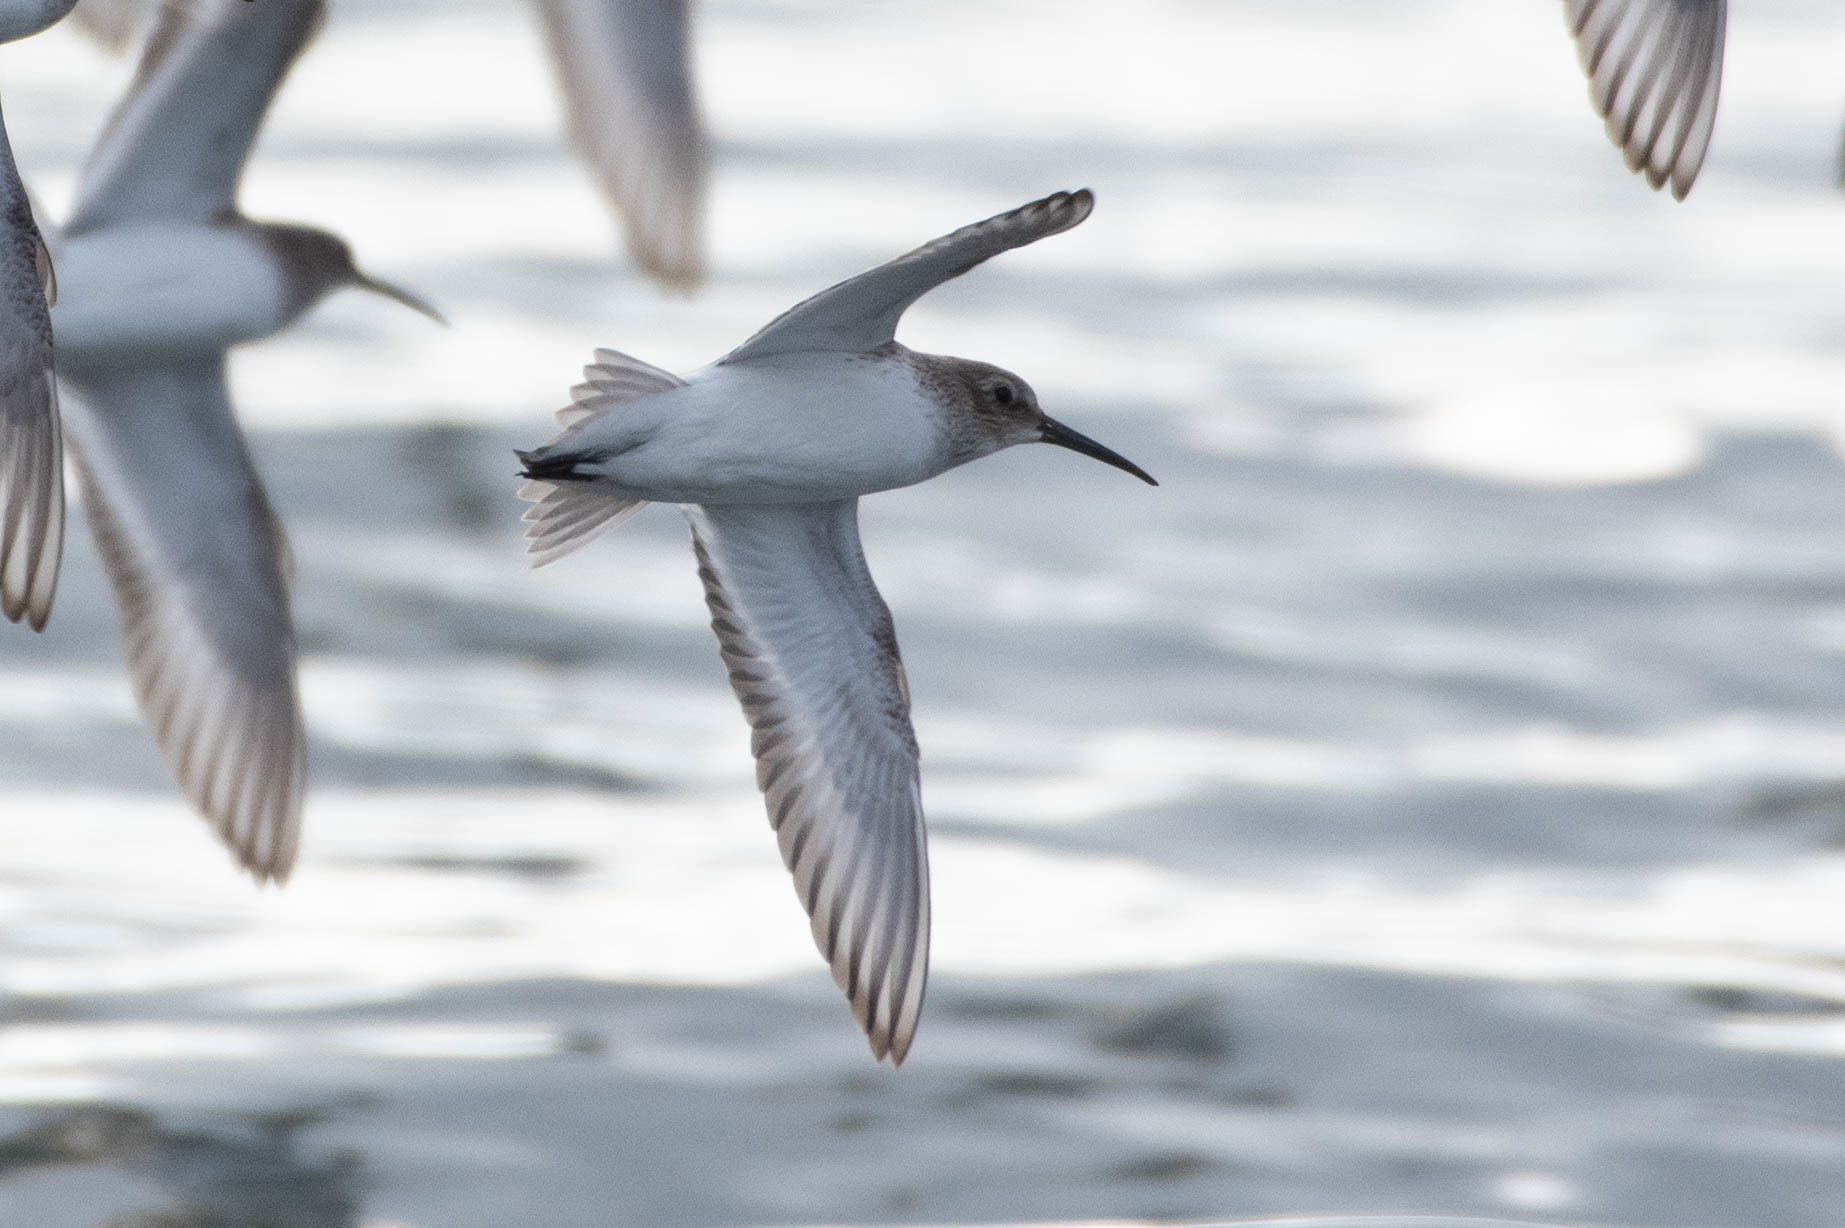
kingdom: Animalia
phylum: Chordata
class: Aves
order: Charadriiformes
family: Scolopacidae
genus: Calidris
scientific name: Calidris alpina
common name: Dunlin
